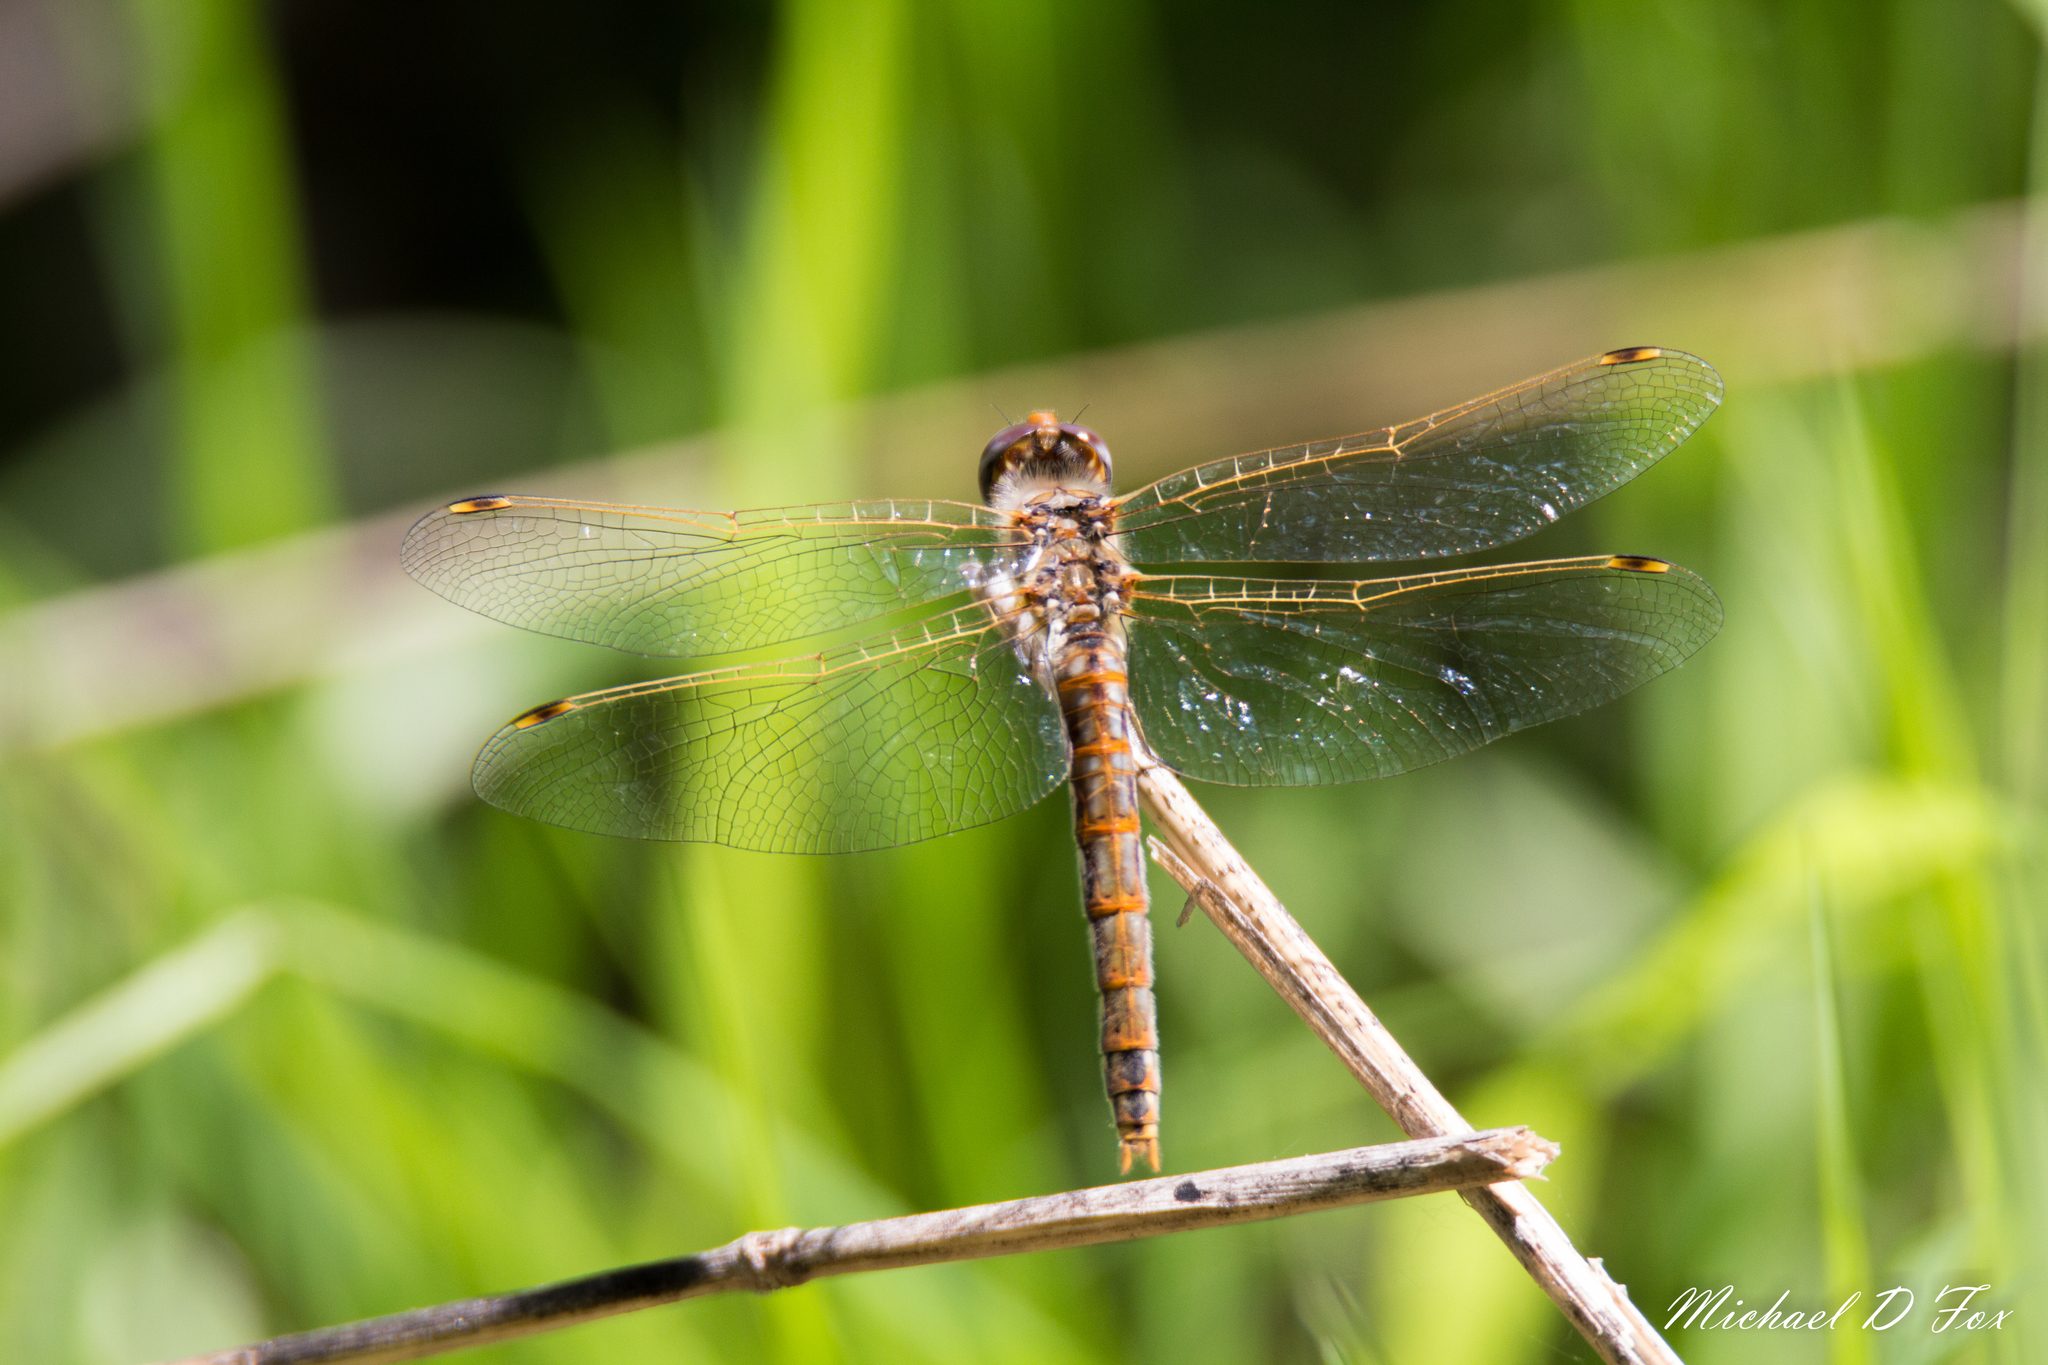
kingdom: Animalia
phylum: Arthropoda
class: Insecta
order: Odonata
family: Libellulidae
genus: Sympetrum
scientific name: Sympetrum corruptum
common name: Variegated meadowhawk
